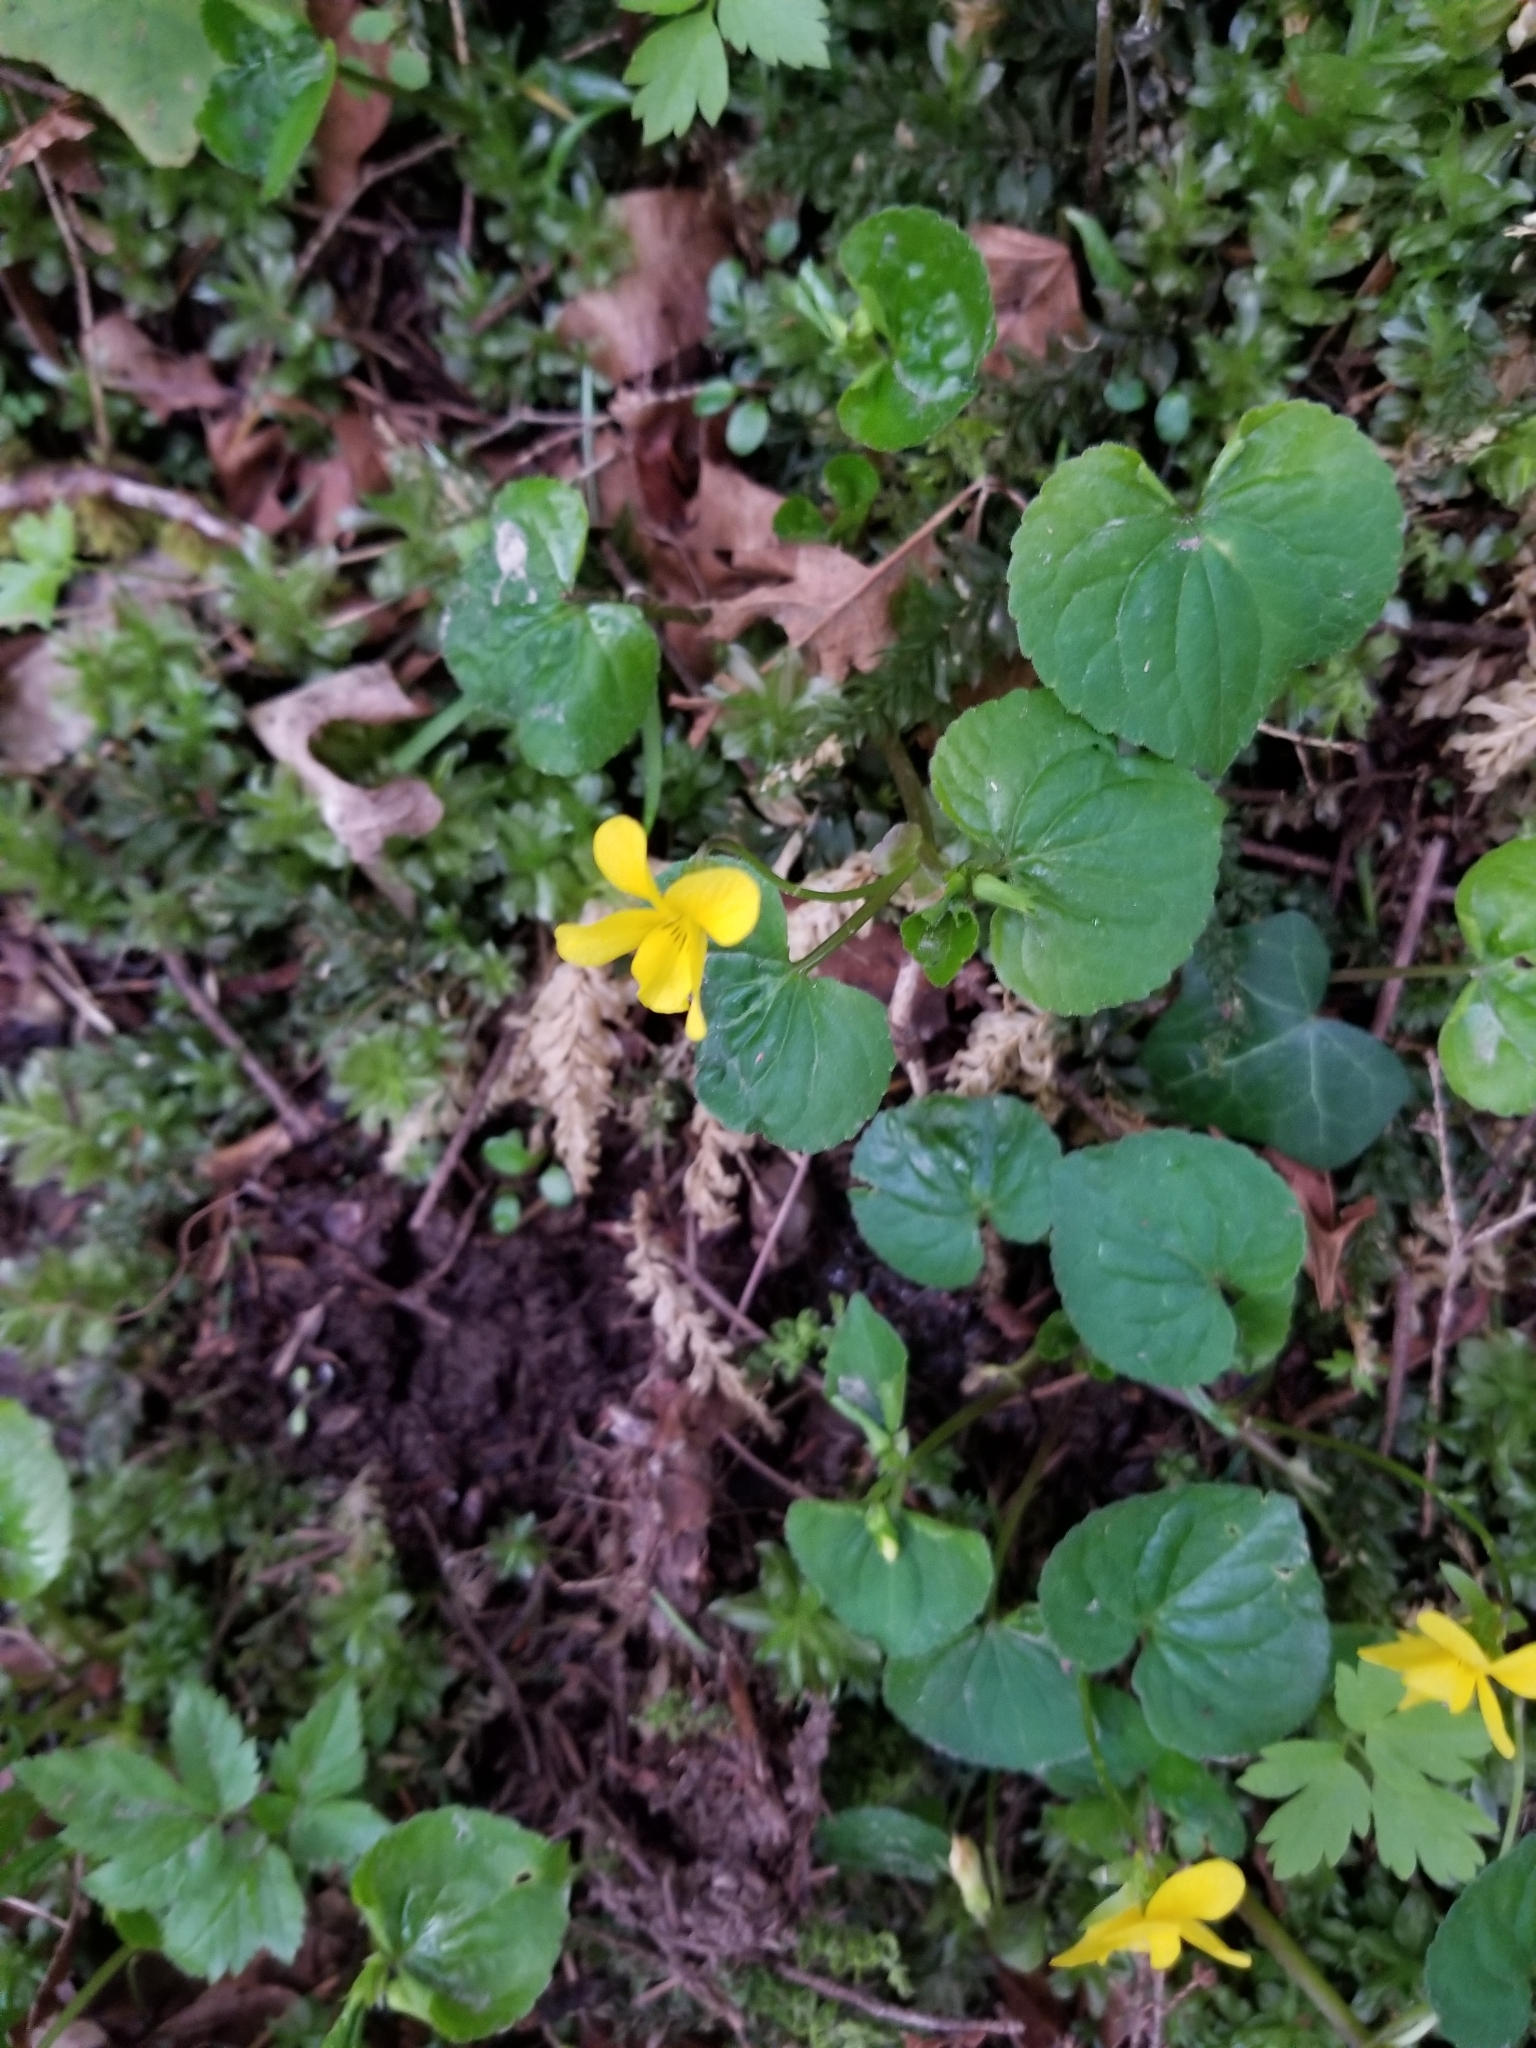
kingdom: Plantae
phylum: Tracheophyta
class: Magnoliopsida
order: Malpighiales
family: Violaceae
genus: Viola
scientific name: Viola glabella
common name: Stream violet
